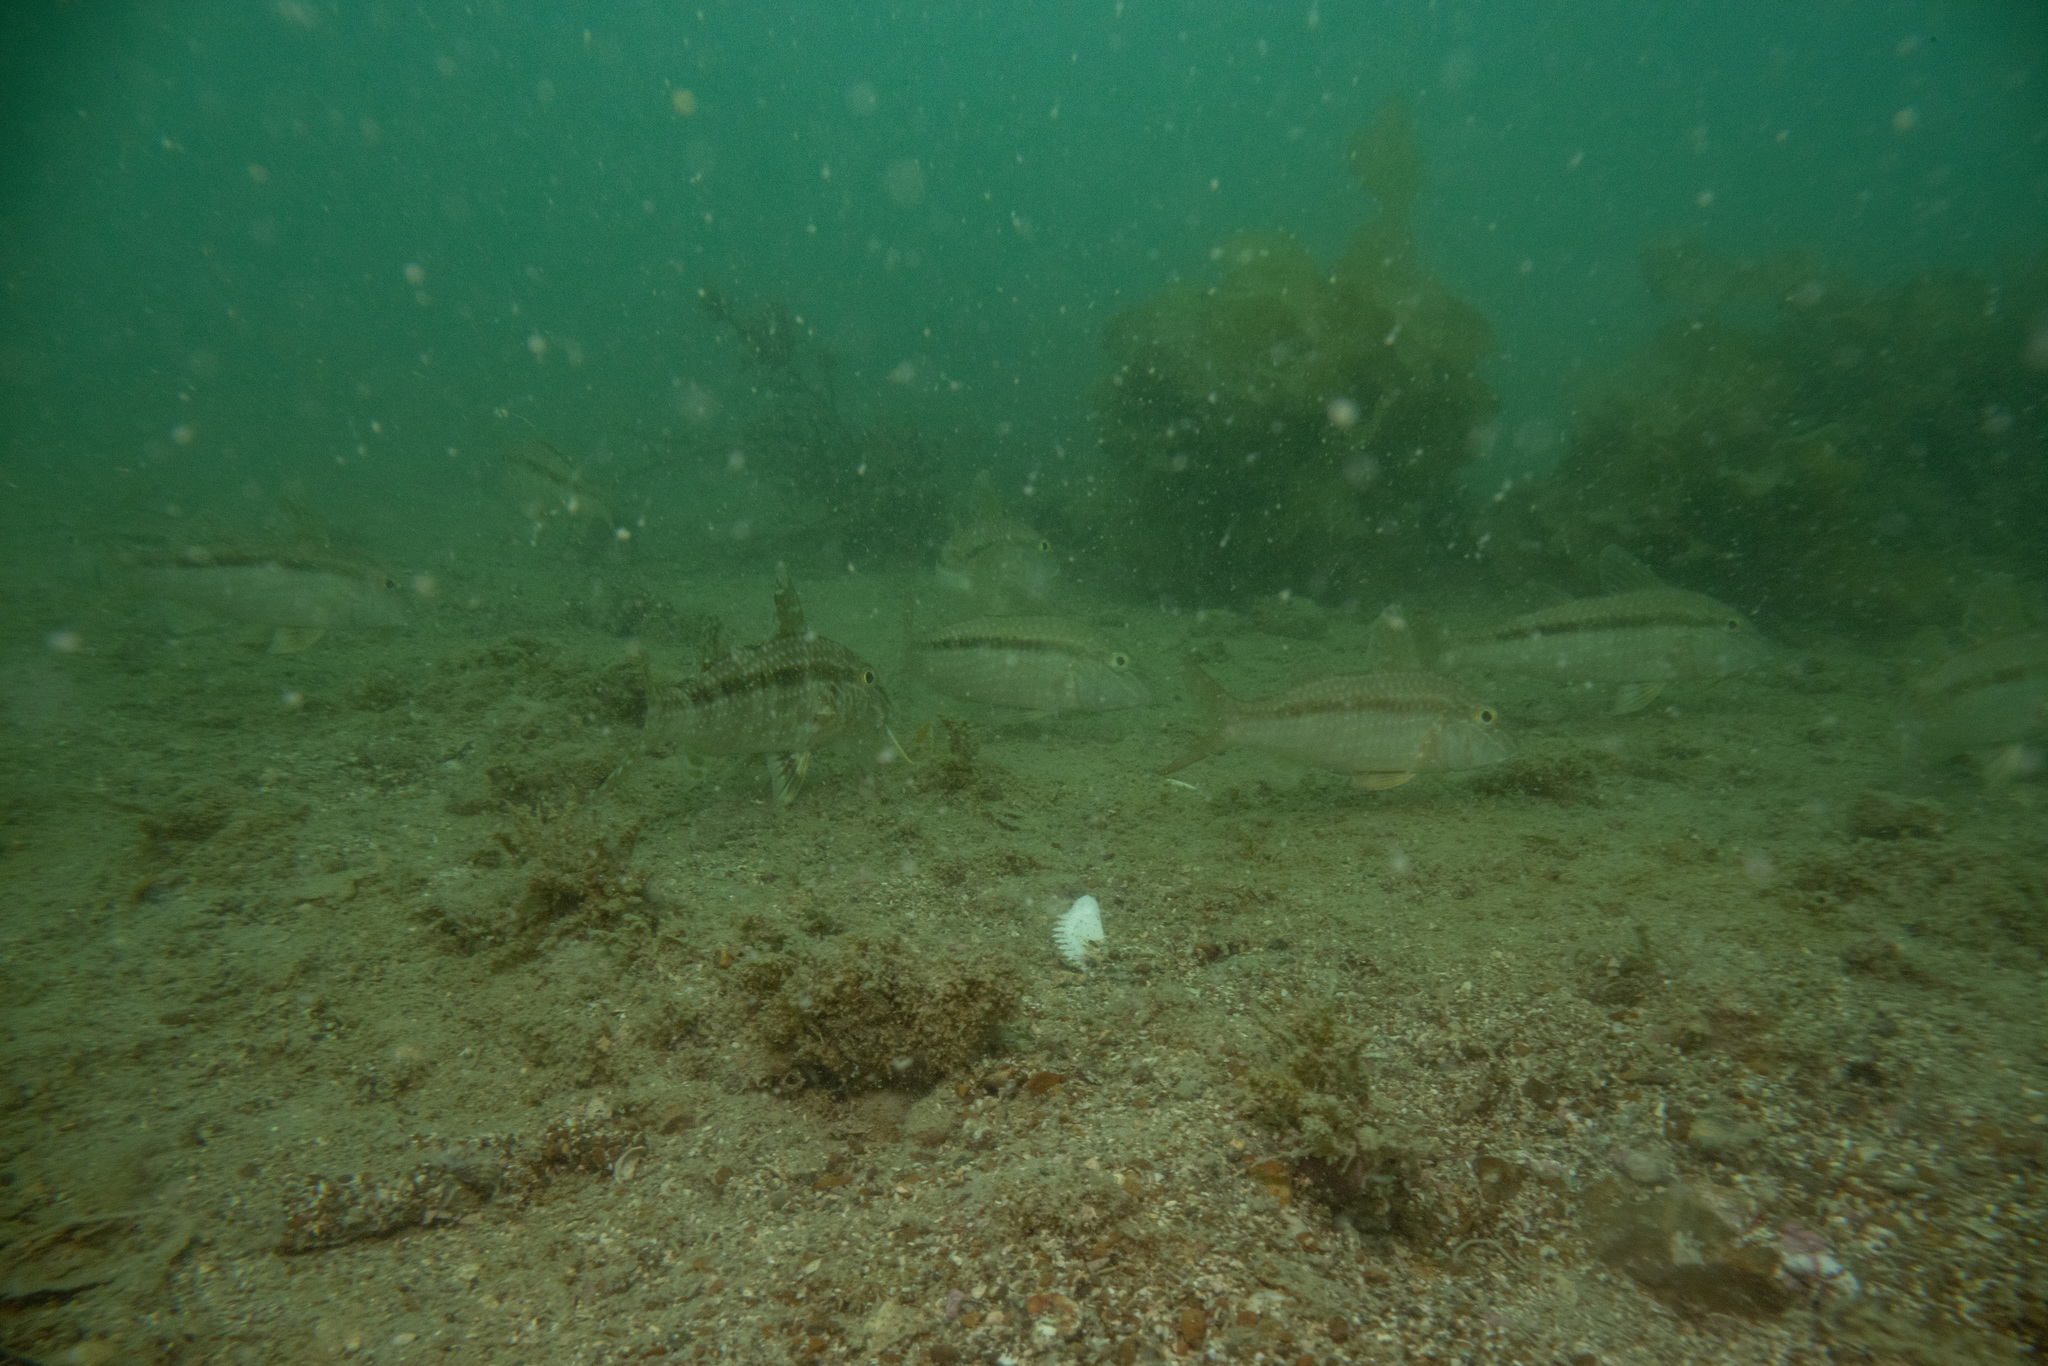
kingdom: Animalia
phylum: Chordata
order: Perciformes
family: Mullidae
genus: Upeneichthys
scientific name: Upeneichthys lineatus
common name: Red mullet
